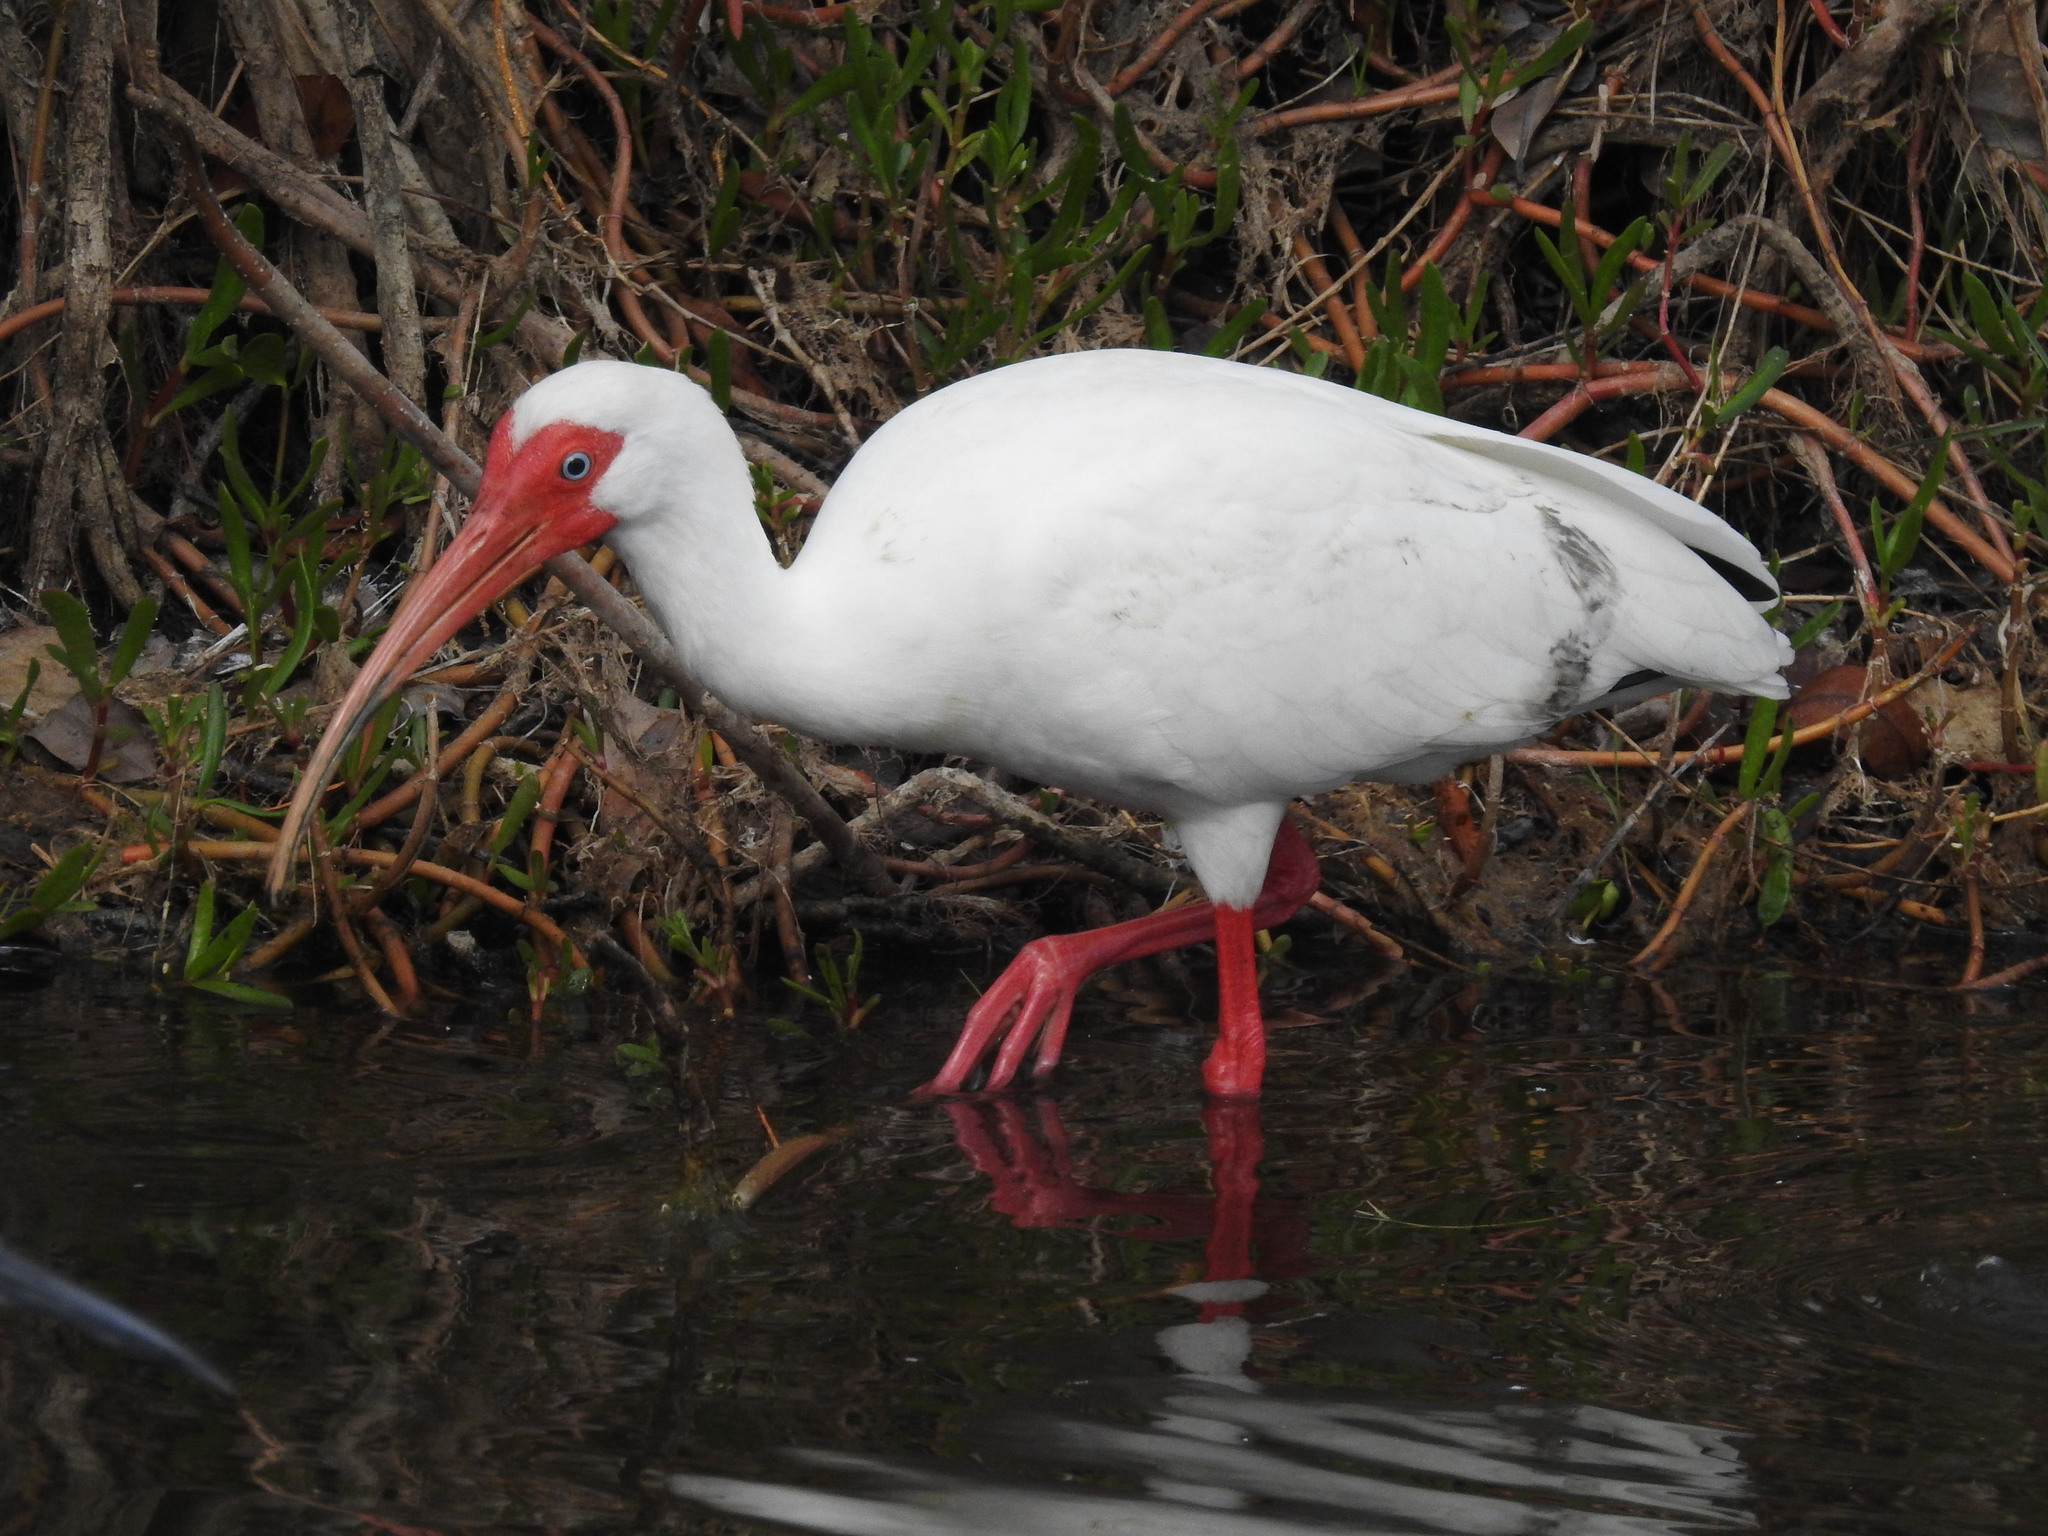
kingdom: Animalia
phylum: Chordata
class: Aves
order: Pelecaniformes
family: Threskiornithidae
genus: Eudocimus
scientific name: Eudocimus albus
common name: White ibis
